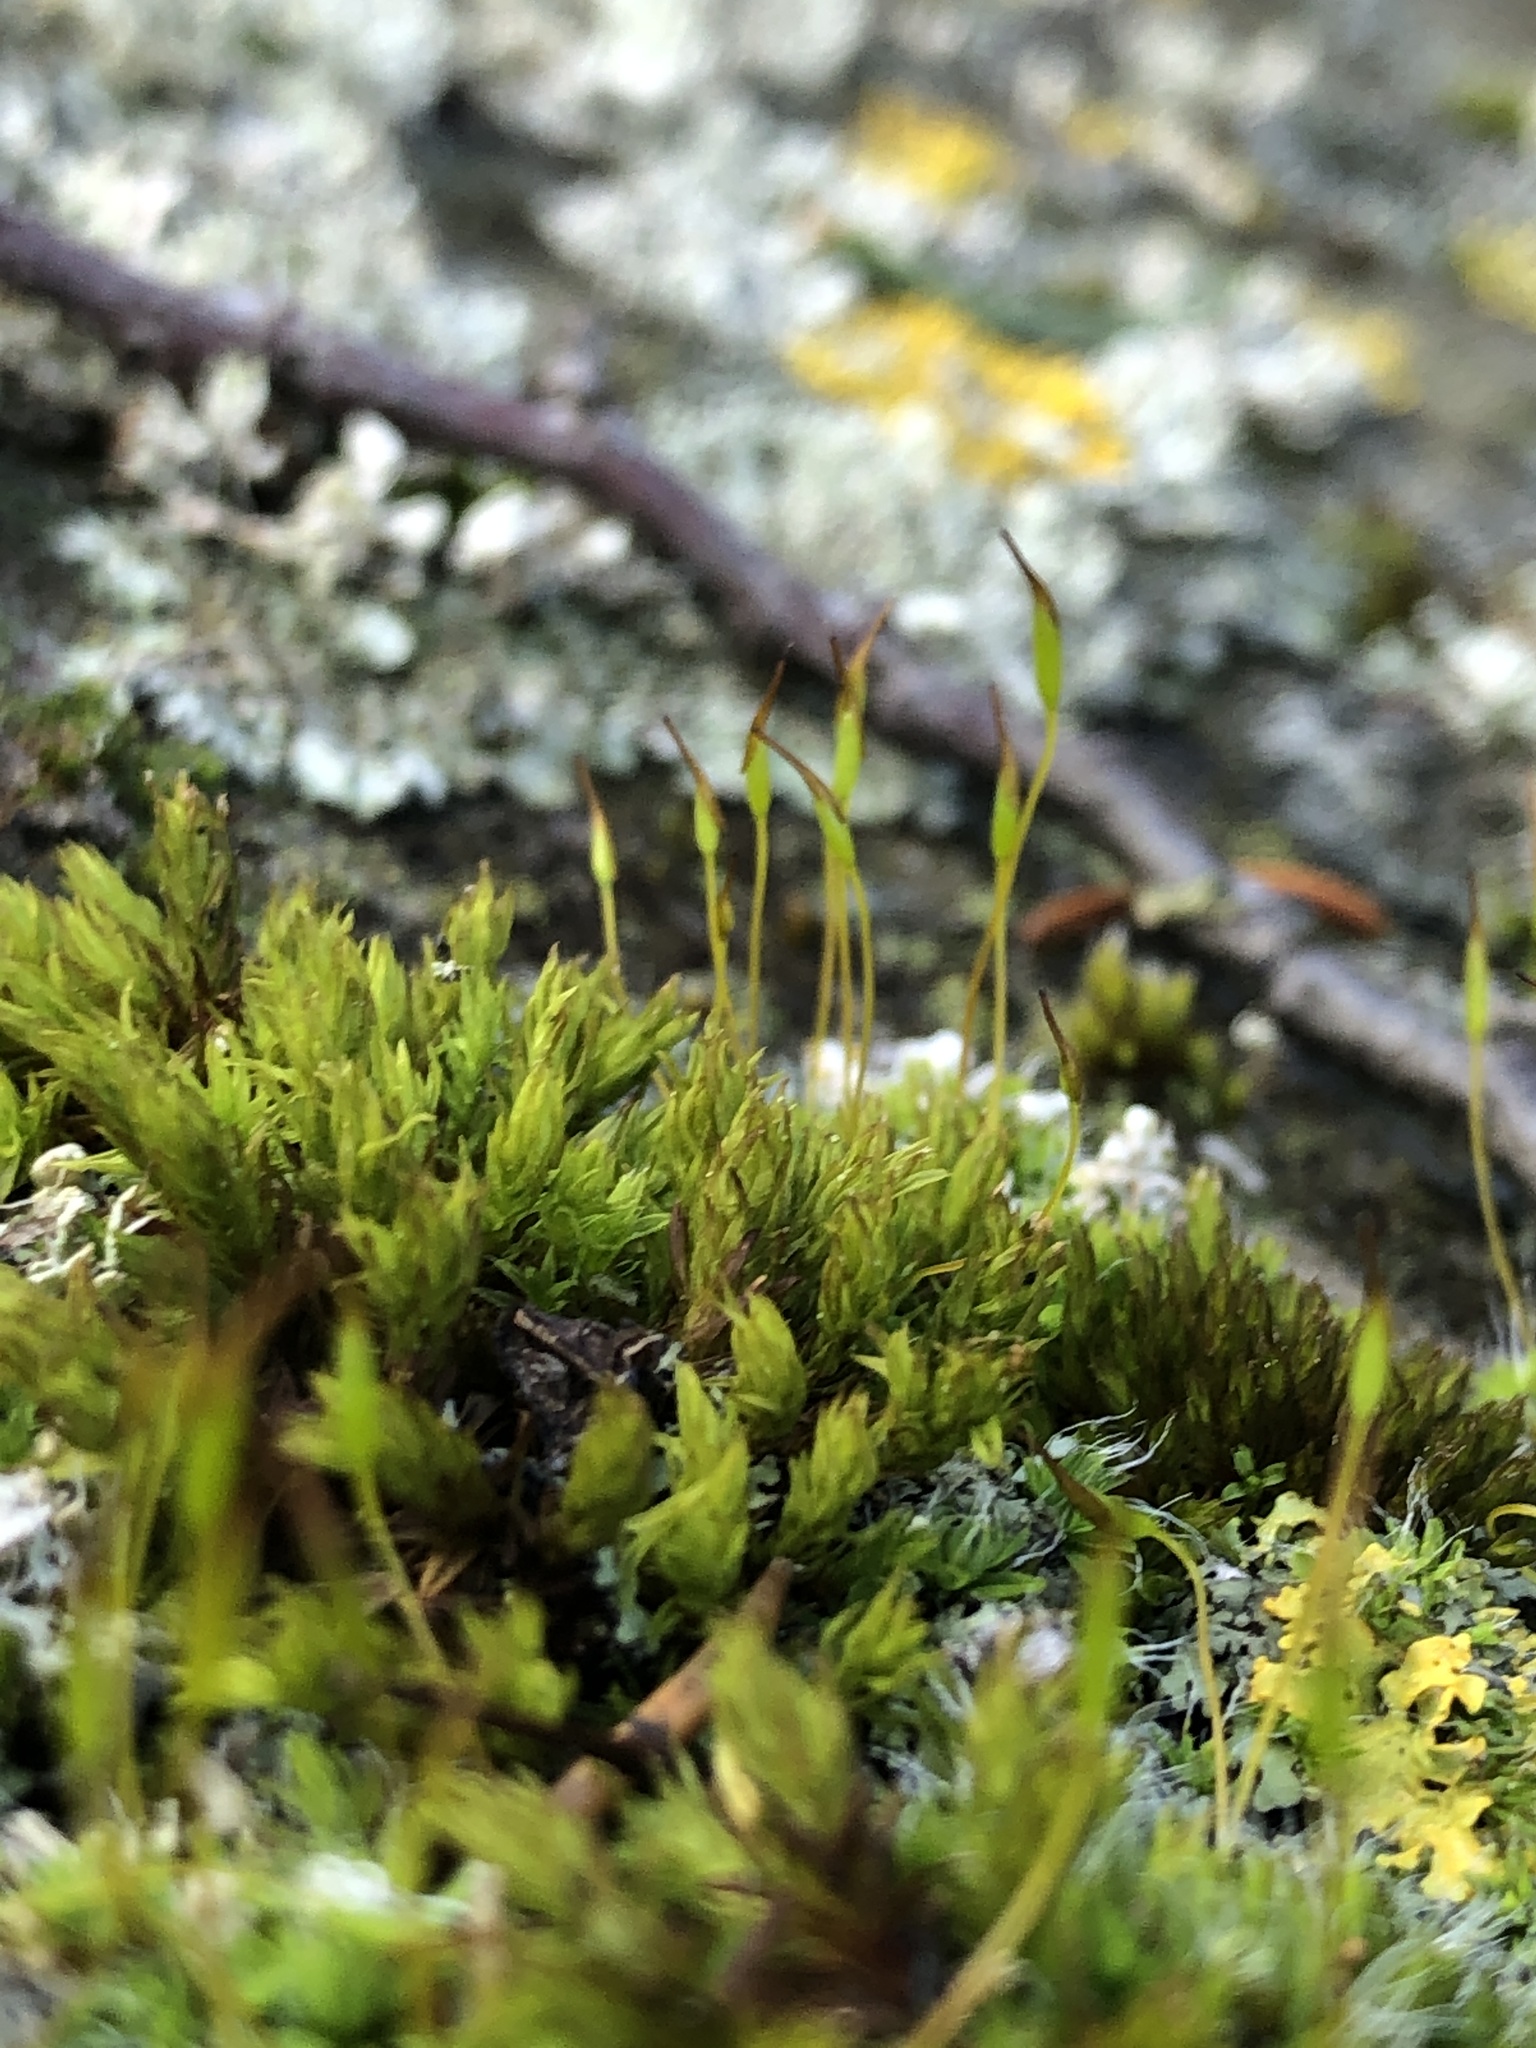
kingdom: Plantae
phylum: Bryophyta
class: Bryopsida
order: Pottiales
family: Pottiaceae
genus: Tortula
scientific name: Tortula muralis
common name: Wall screw-moss
